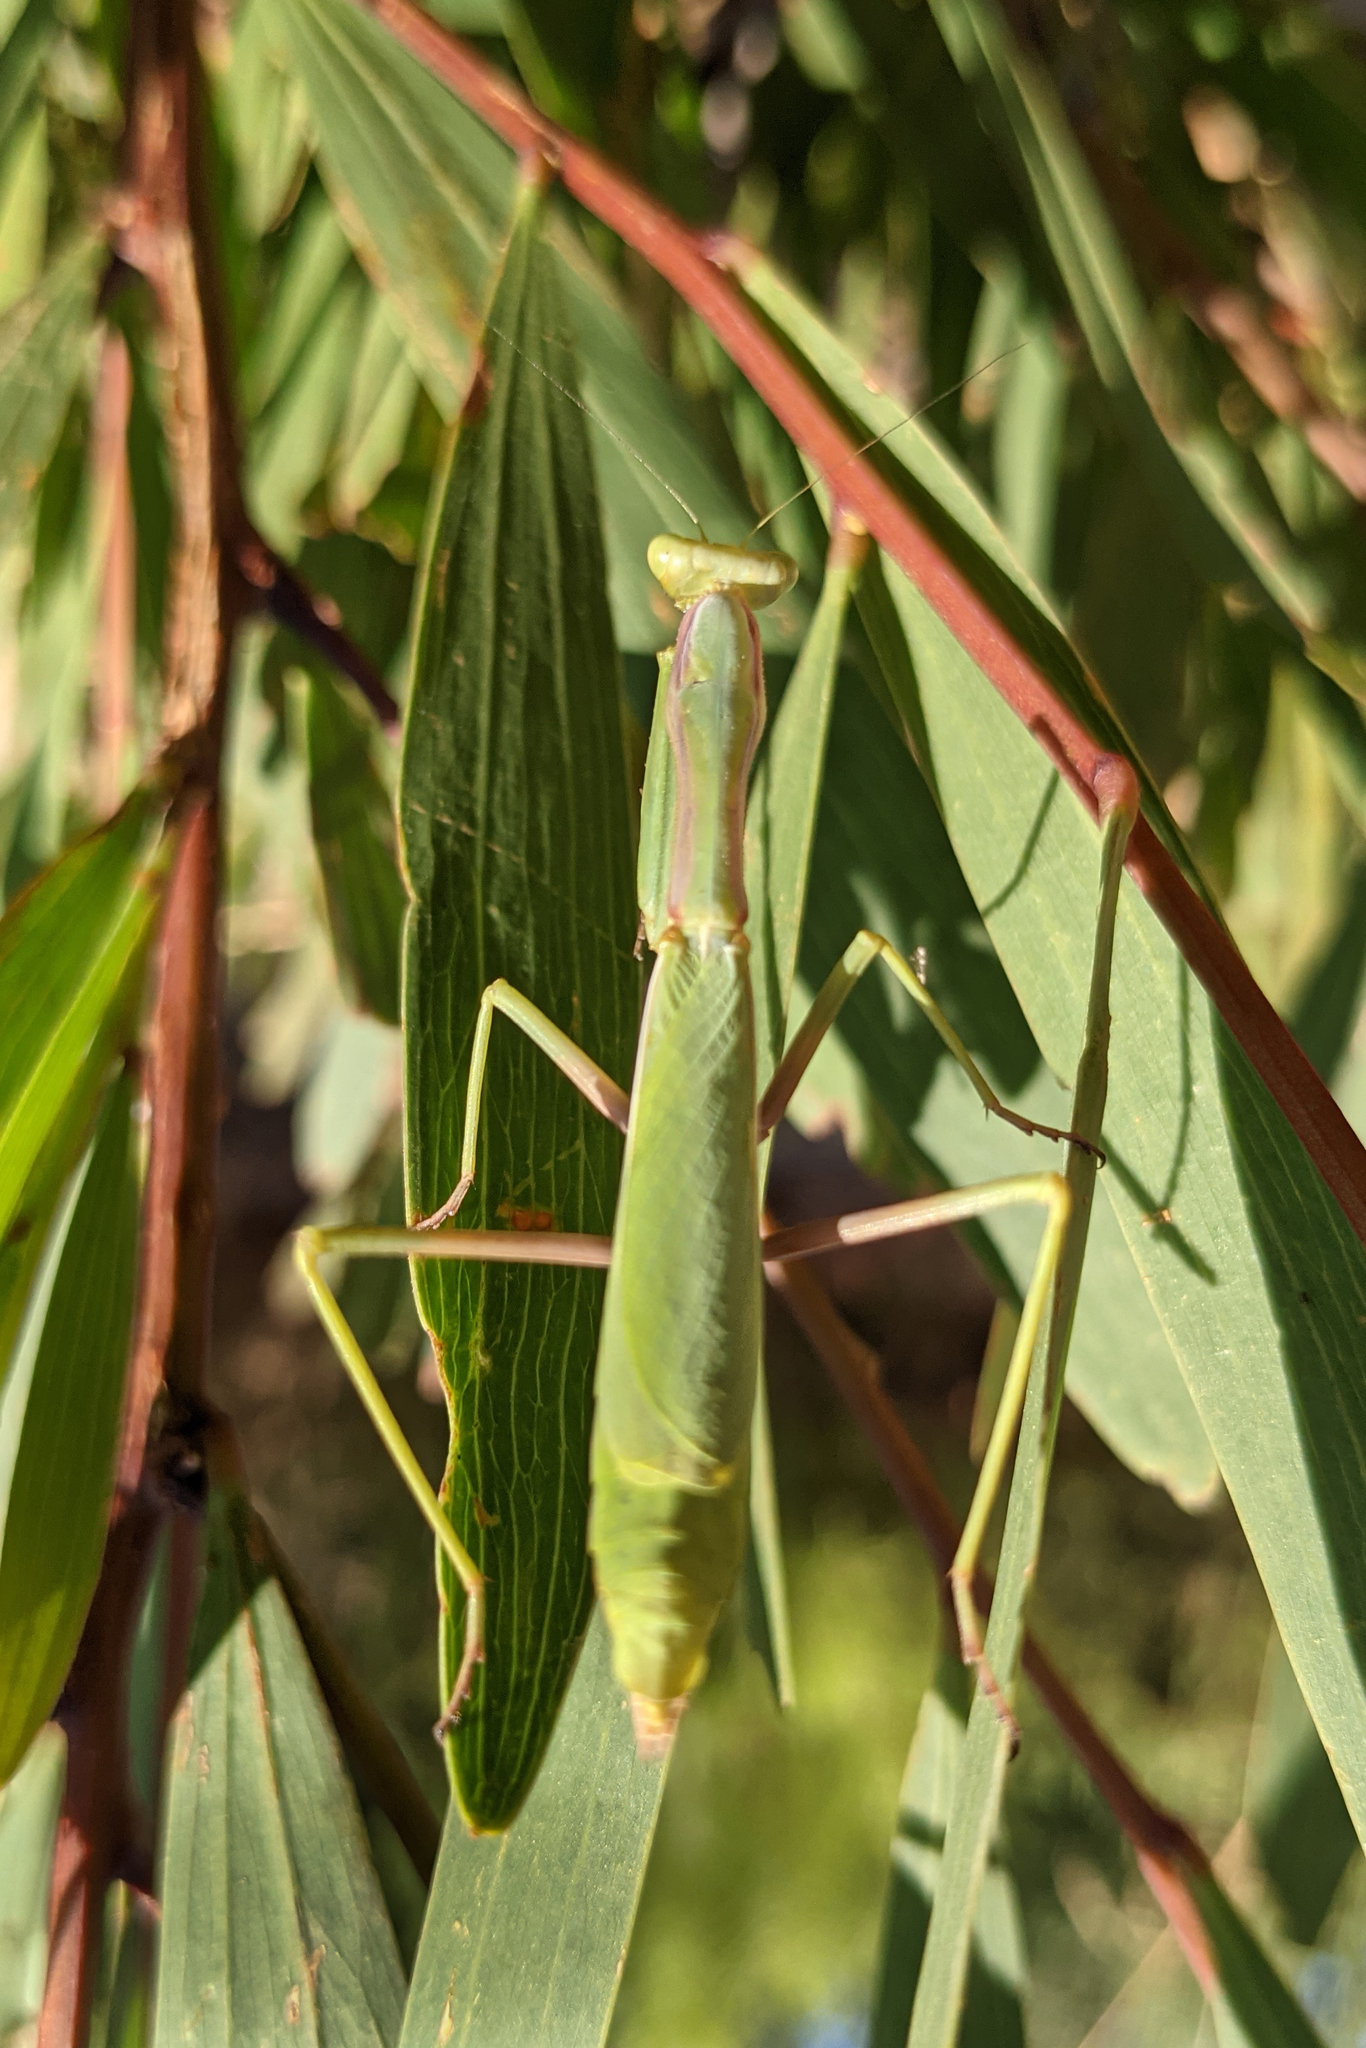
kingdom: Animalia
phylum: Arthropoda
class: Insecta
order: Mantodea
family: Eremiaphilidae
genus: Iris
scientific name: Iris oratoria
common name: Mediterranean mantis
